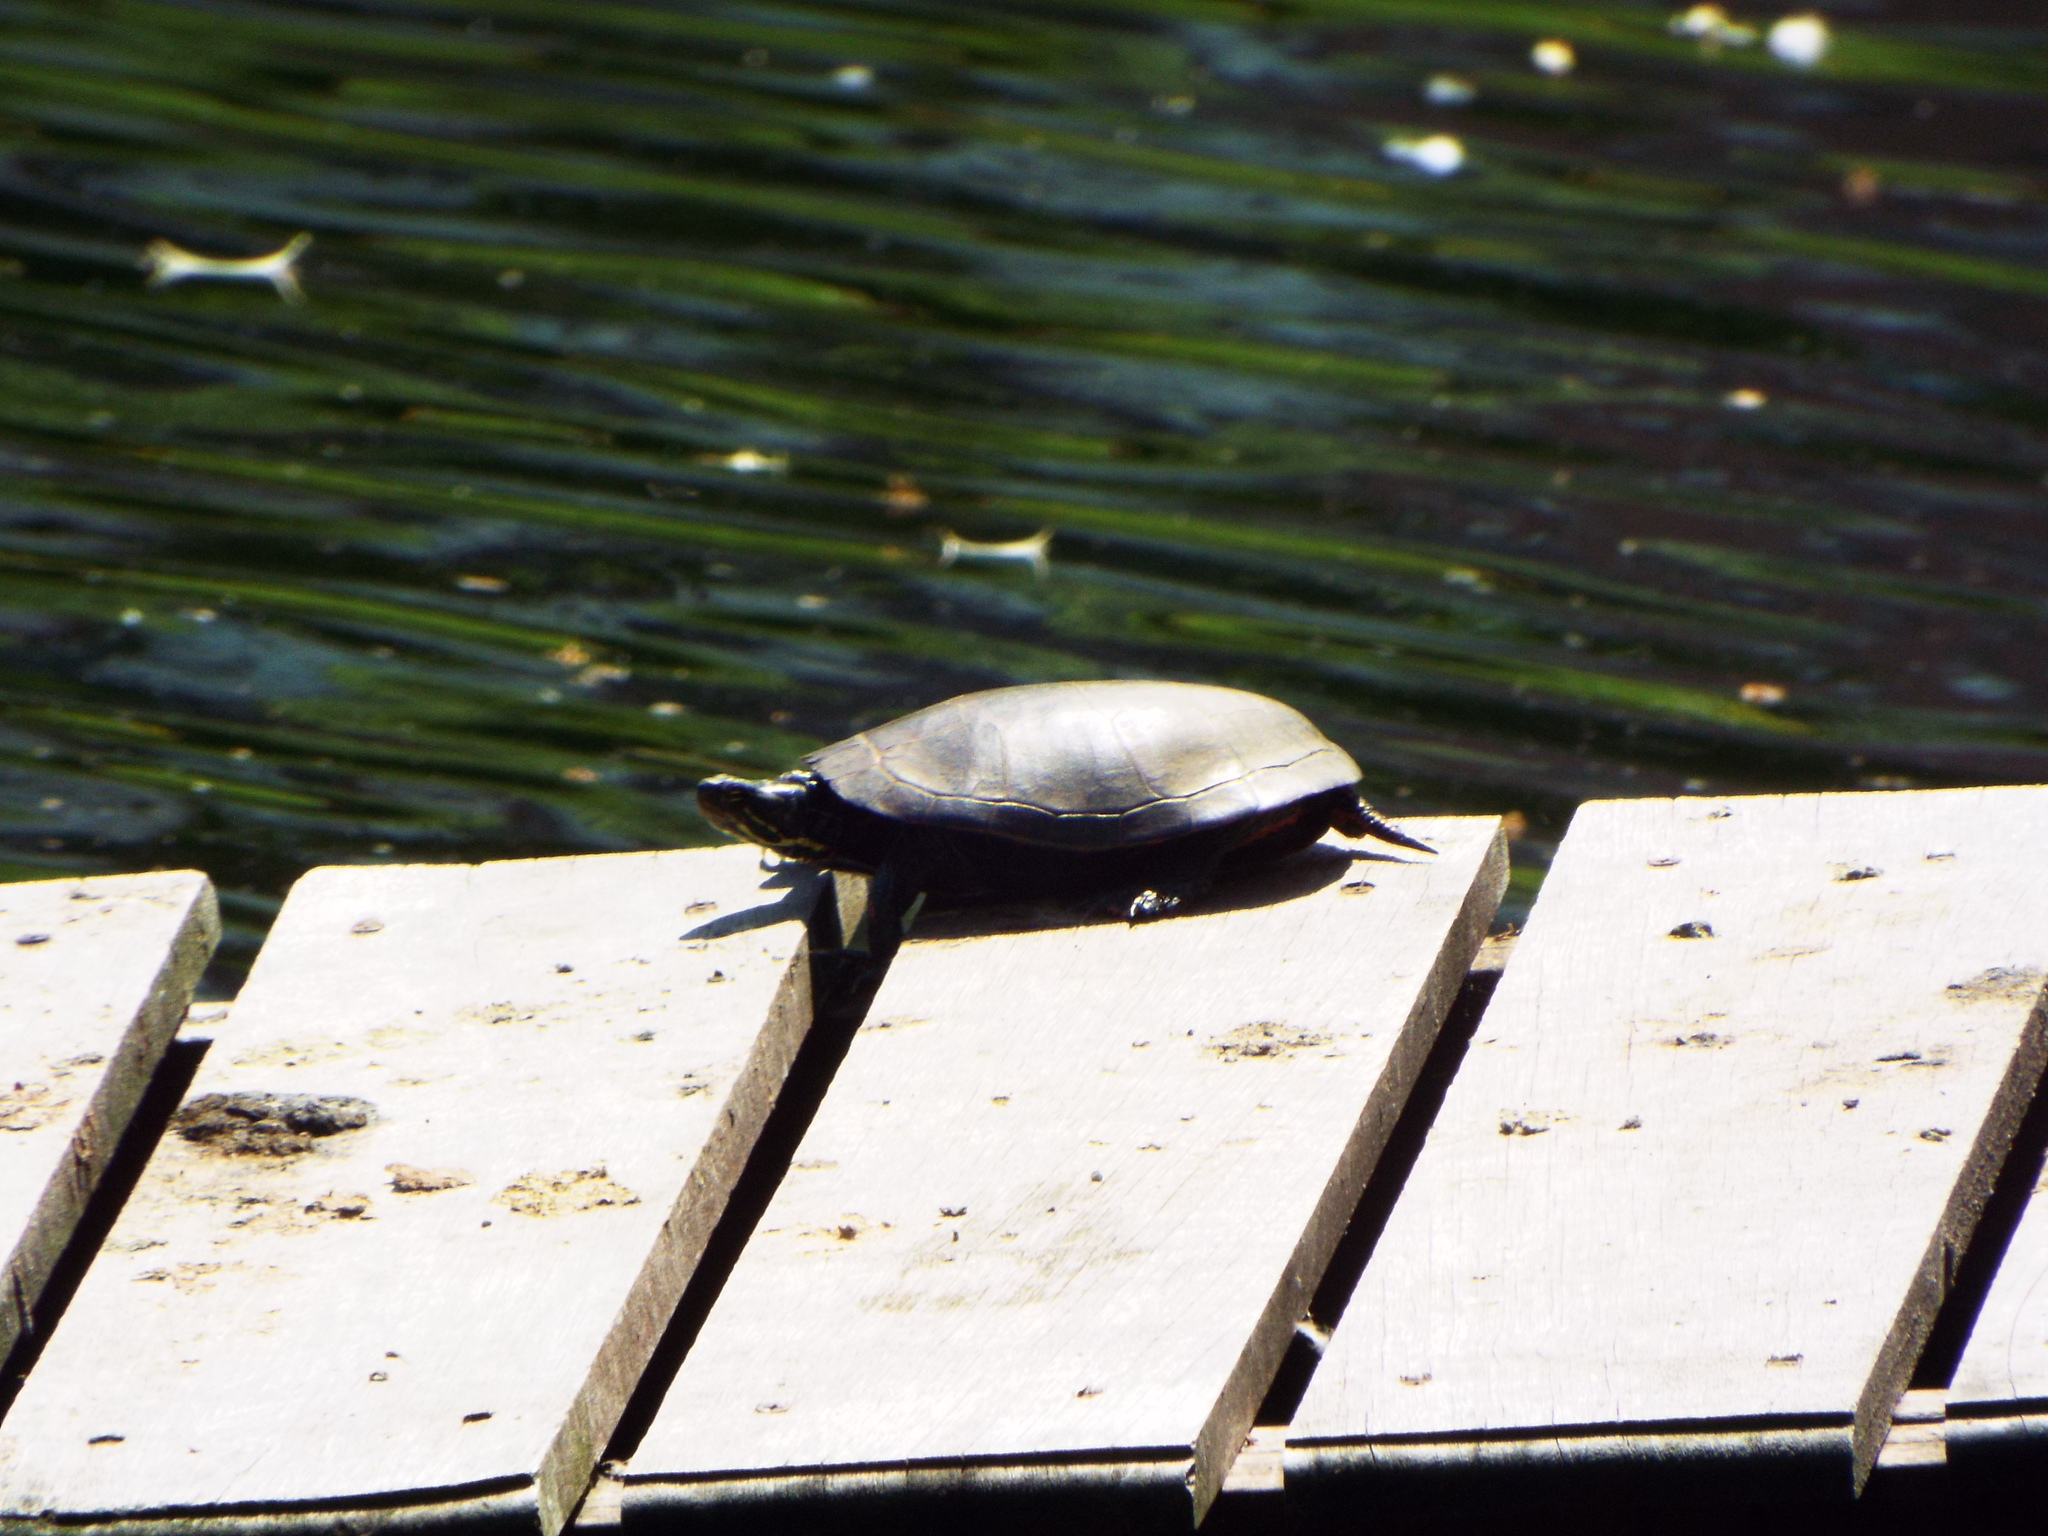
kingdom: Animalia
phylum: Chordata
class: Testudines
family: Emydidae
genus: Chrysemys
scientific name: Chrysemys picta
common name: Painted turtle
